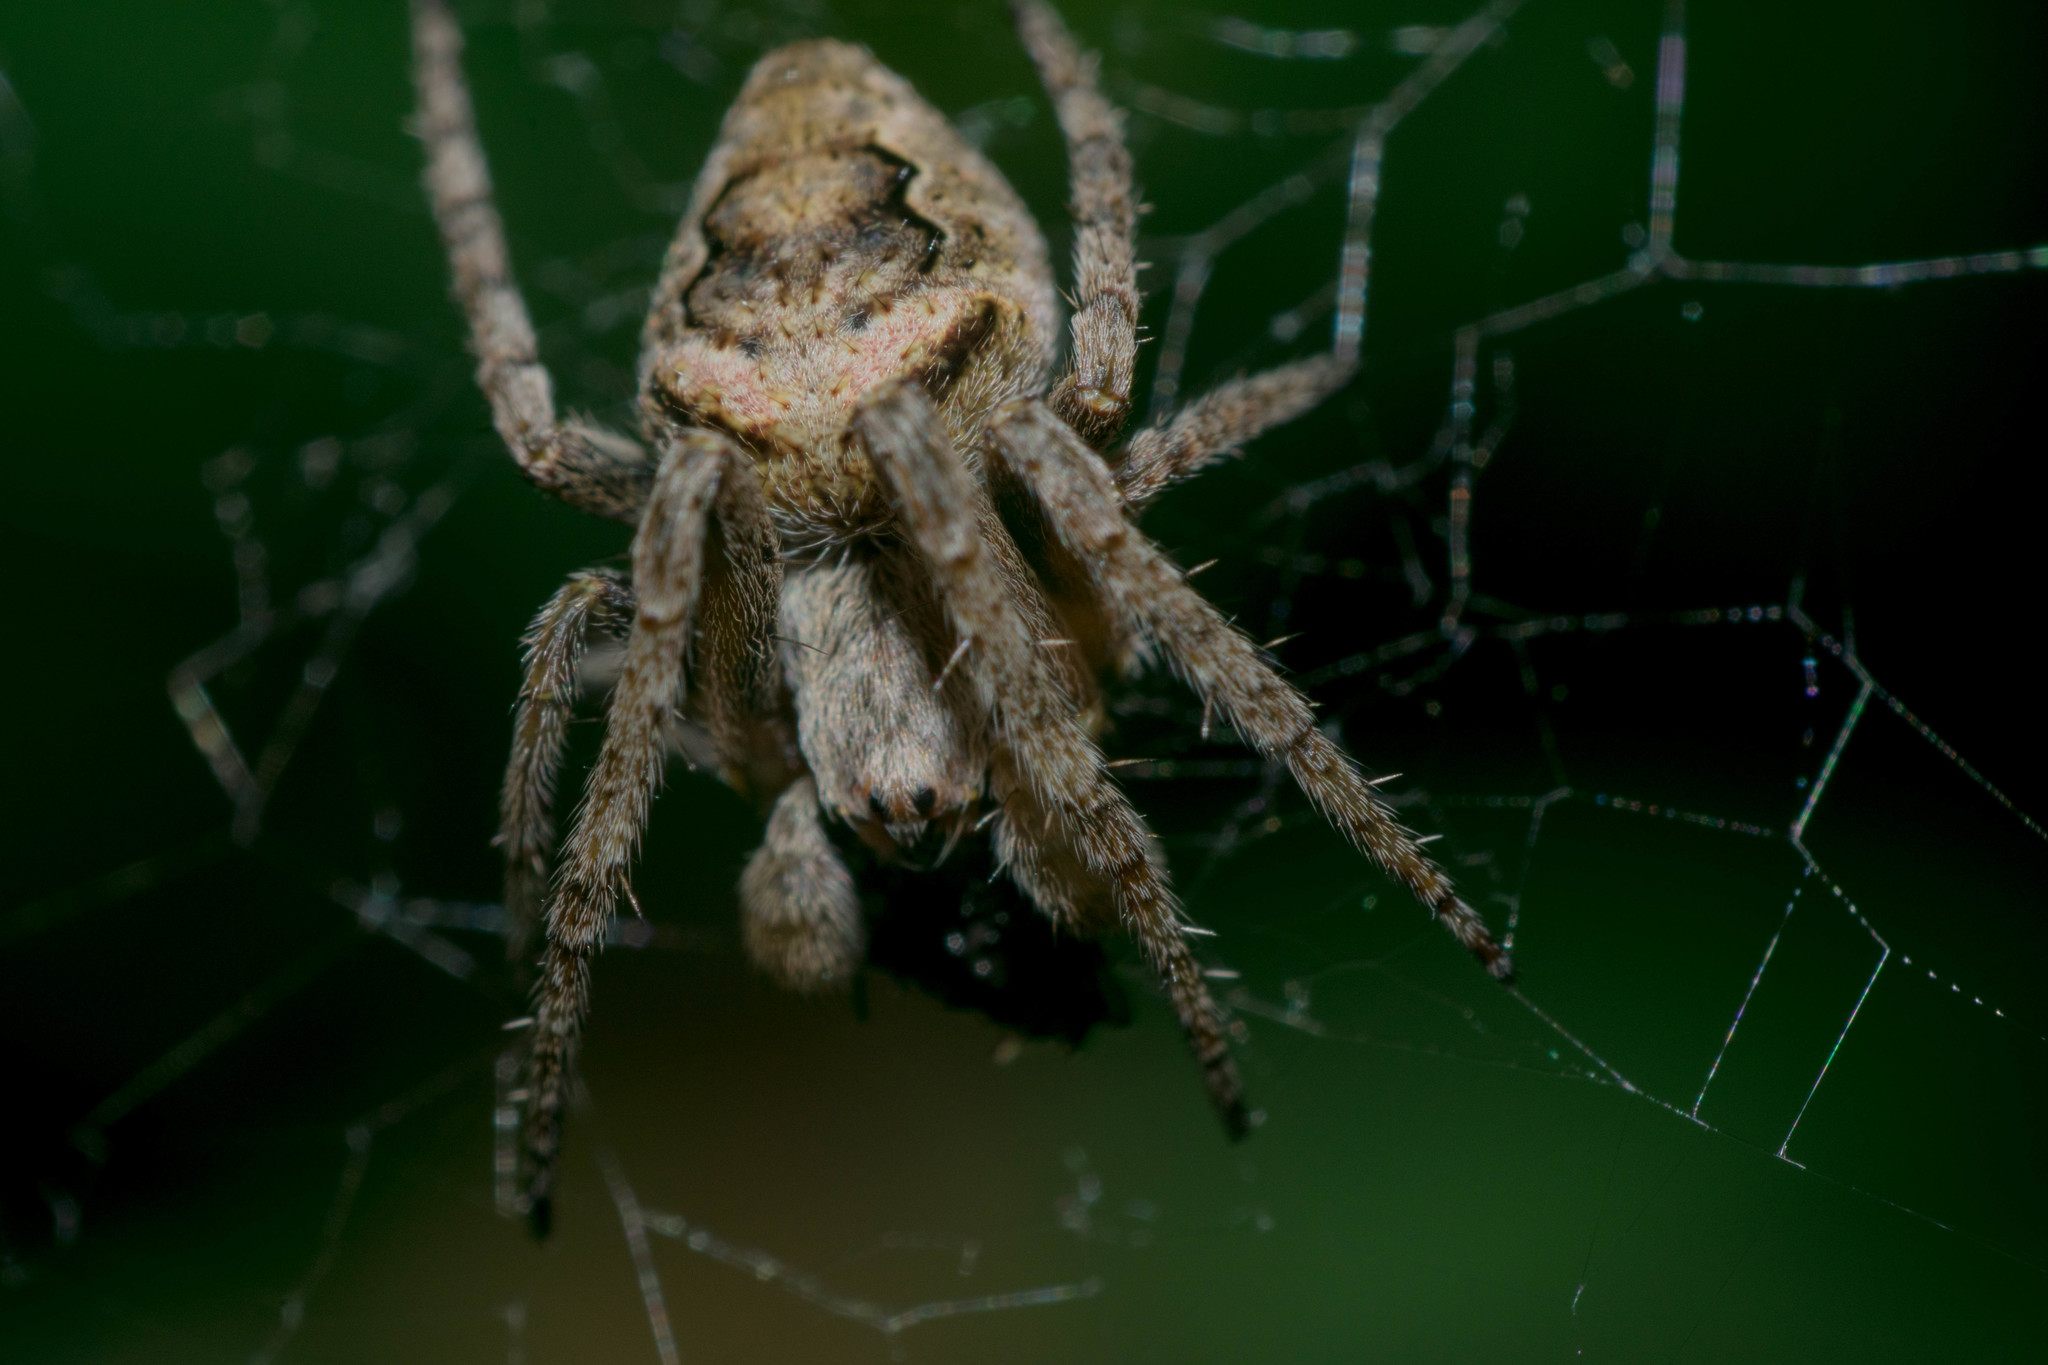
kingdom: Animalia
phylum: Arthropoda
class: Arachnida
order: Araneae
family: Araneidae
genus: Eustala
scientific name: Eustala anastera
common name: Orb weavers
